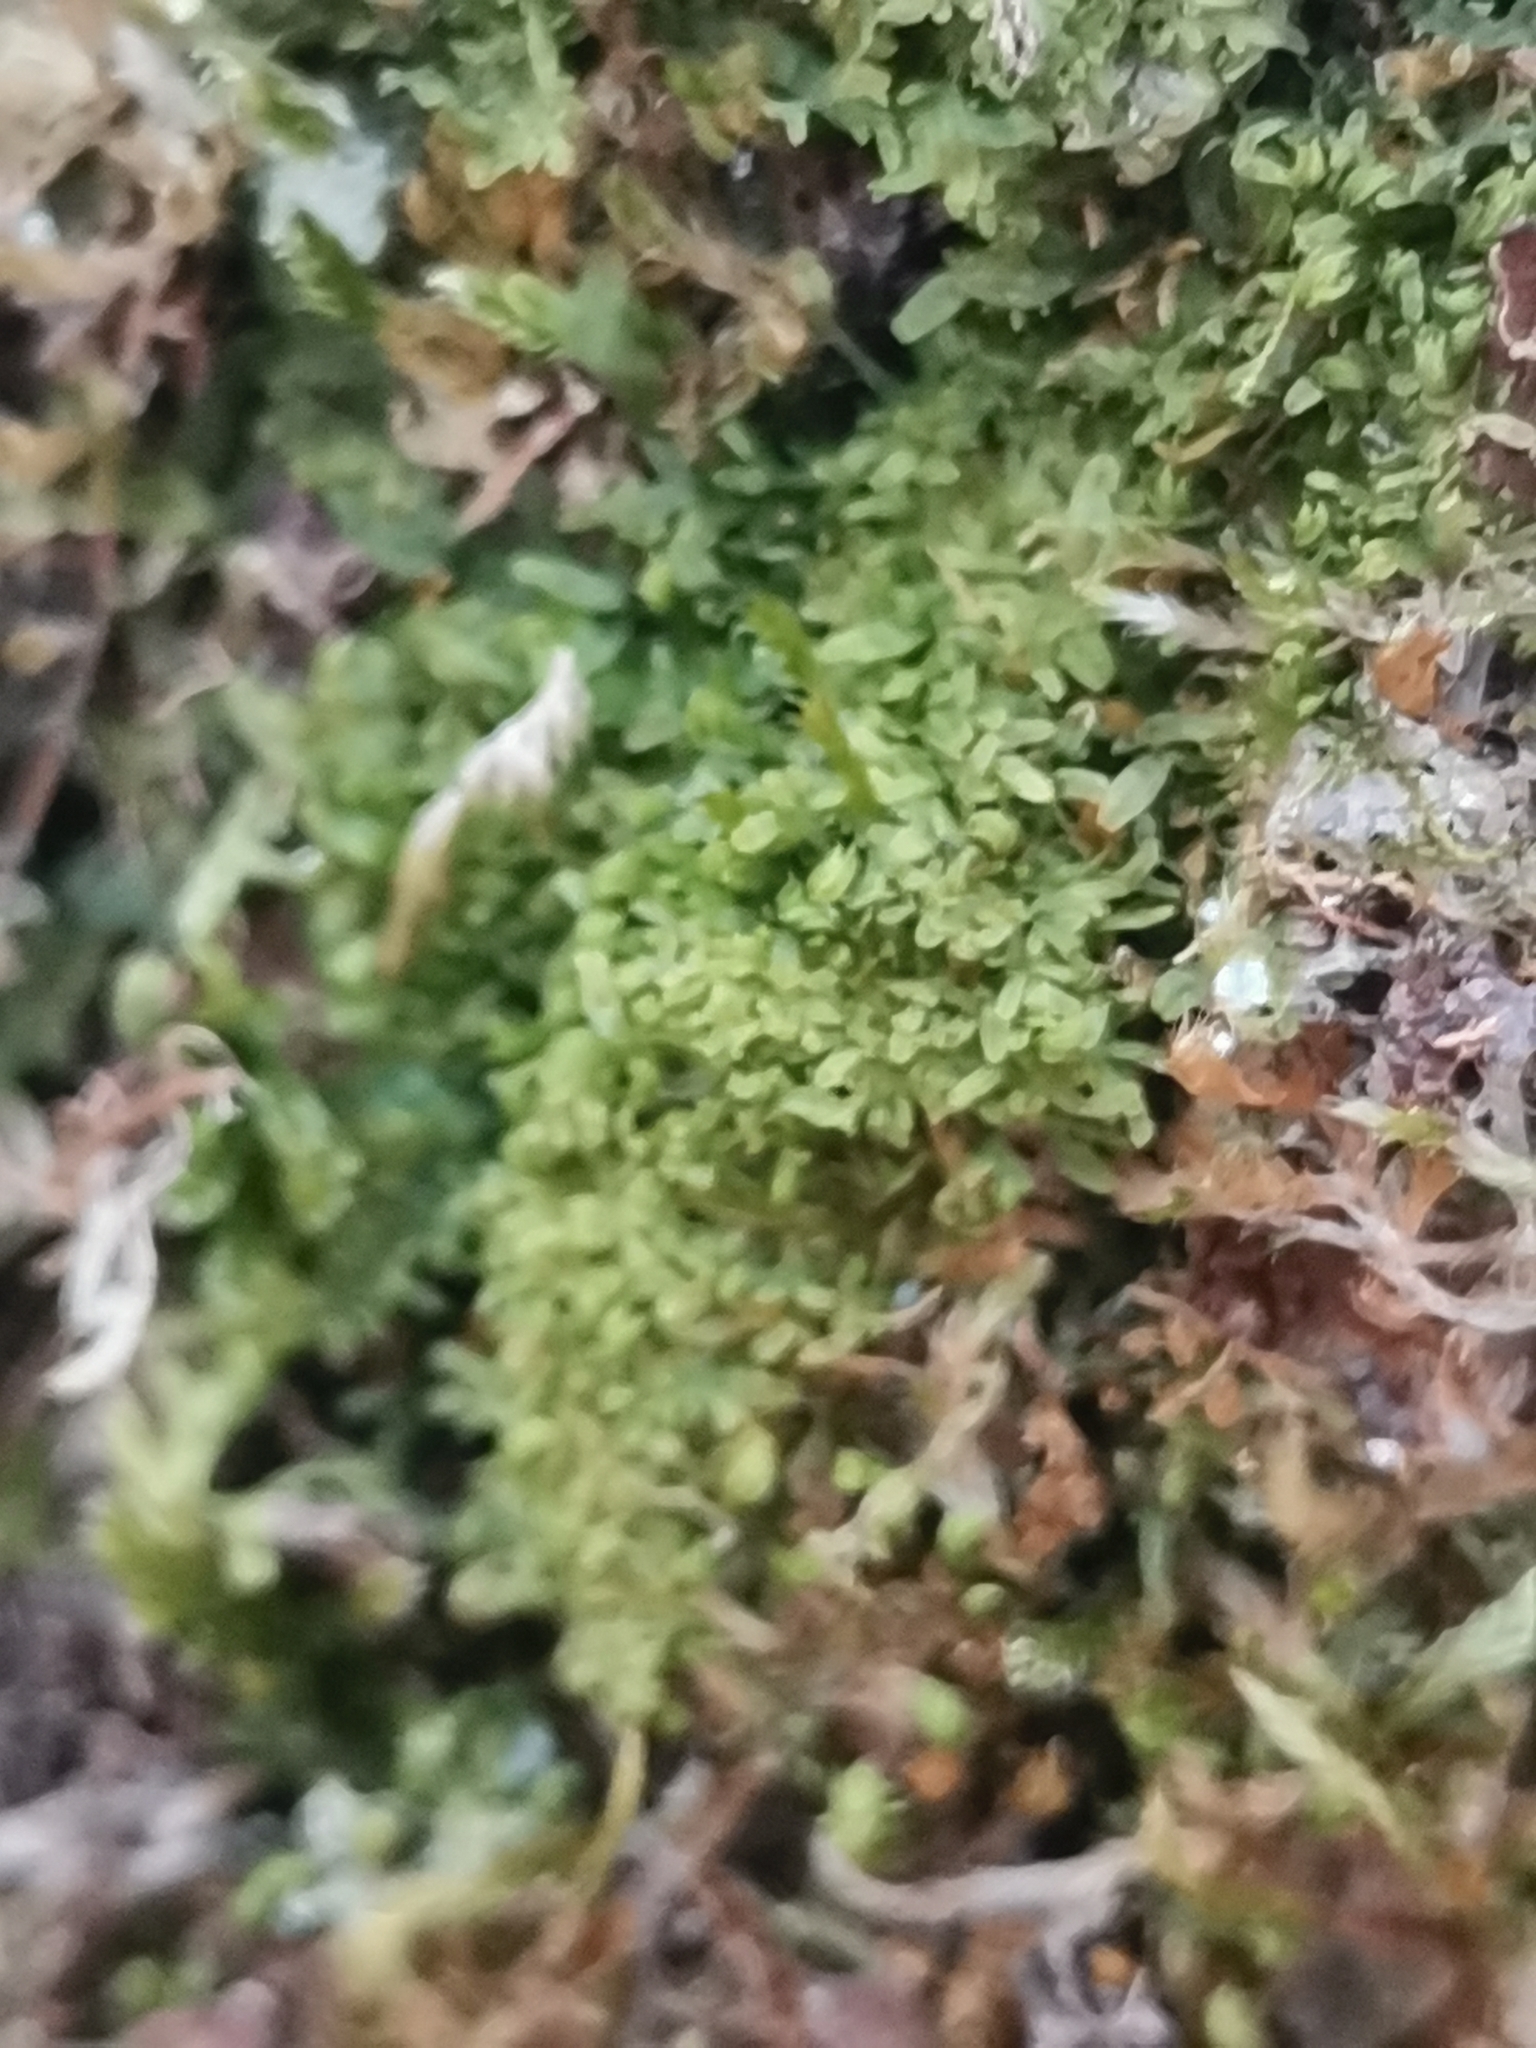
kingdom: Plantae
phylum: Marchantiophyta
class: Jungermanniopsida
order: Metzgeriales
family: Metzgeriaceae
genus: Metzgeria
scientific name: Metzgeria furcata
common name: Forked veilwort
